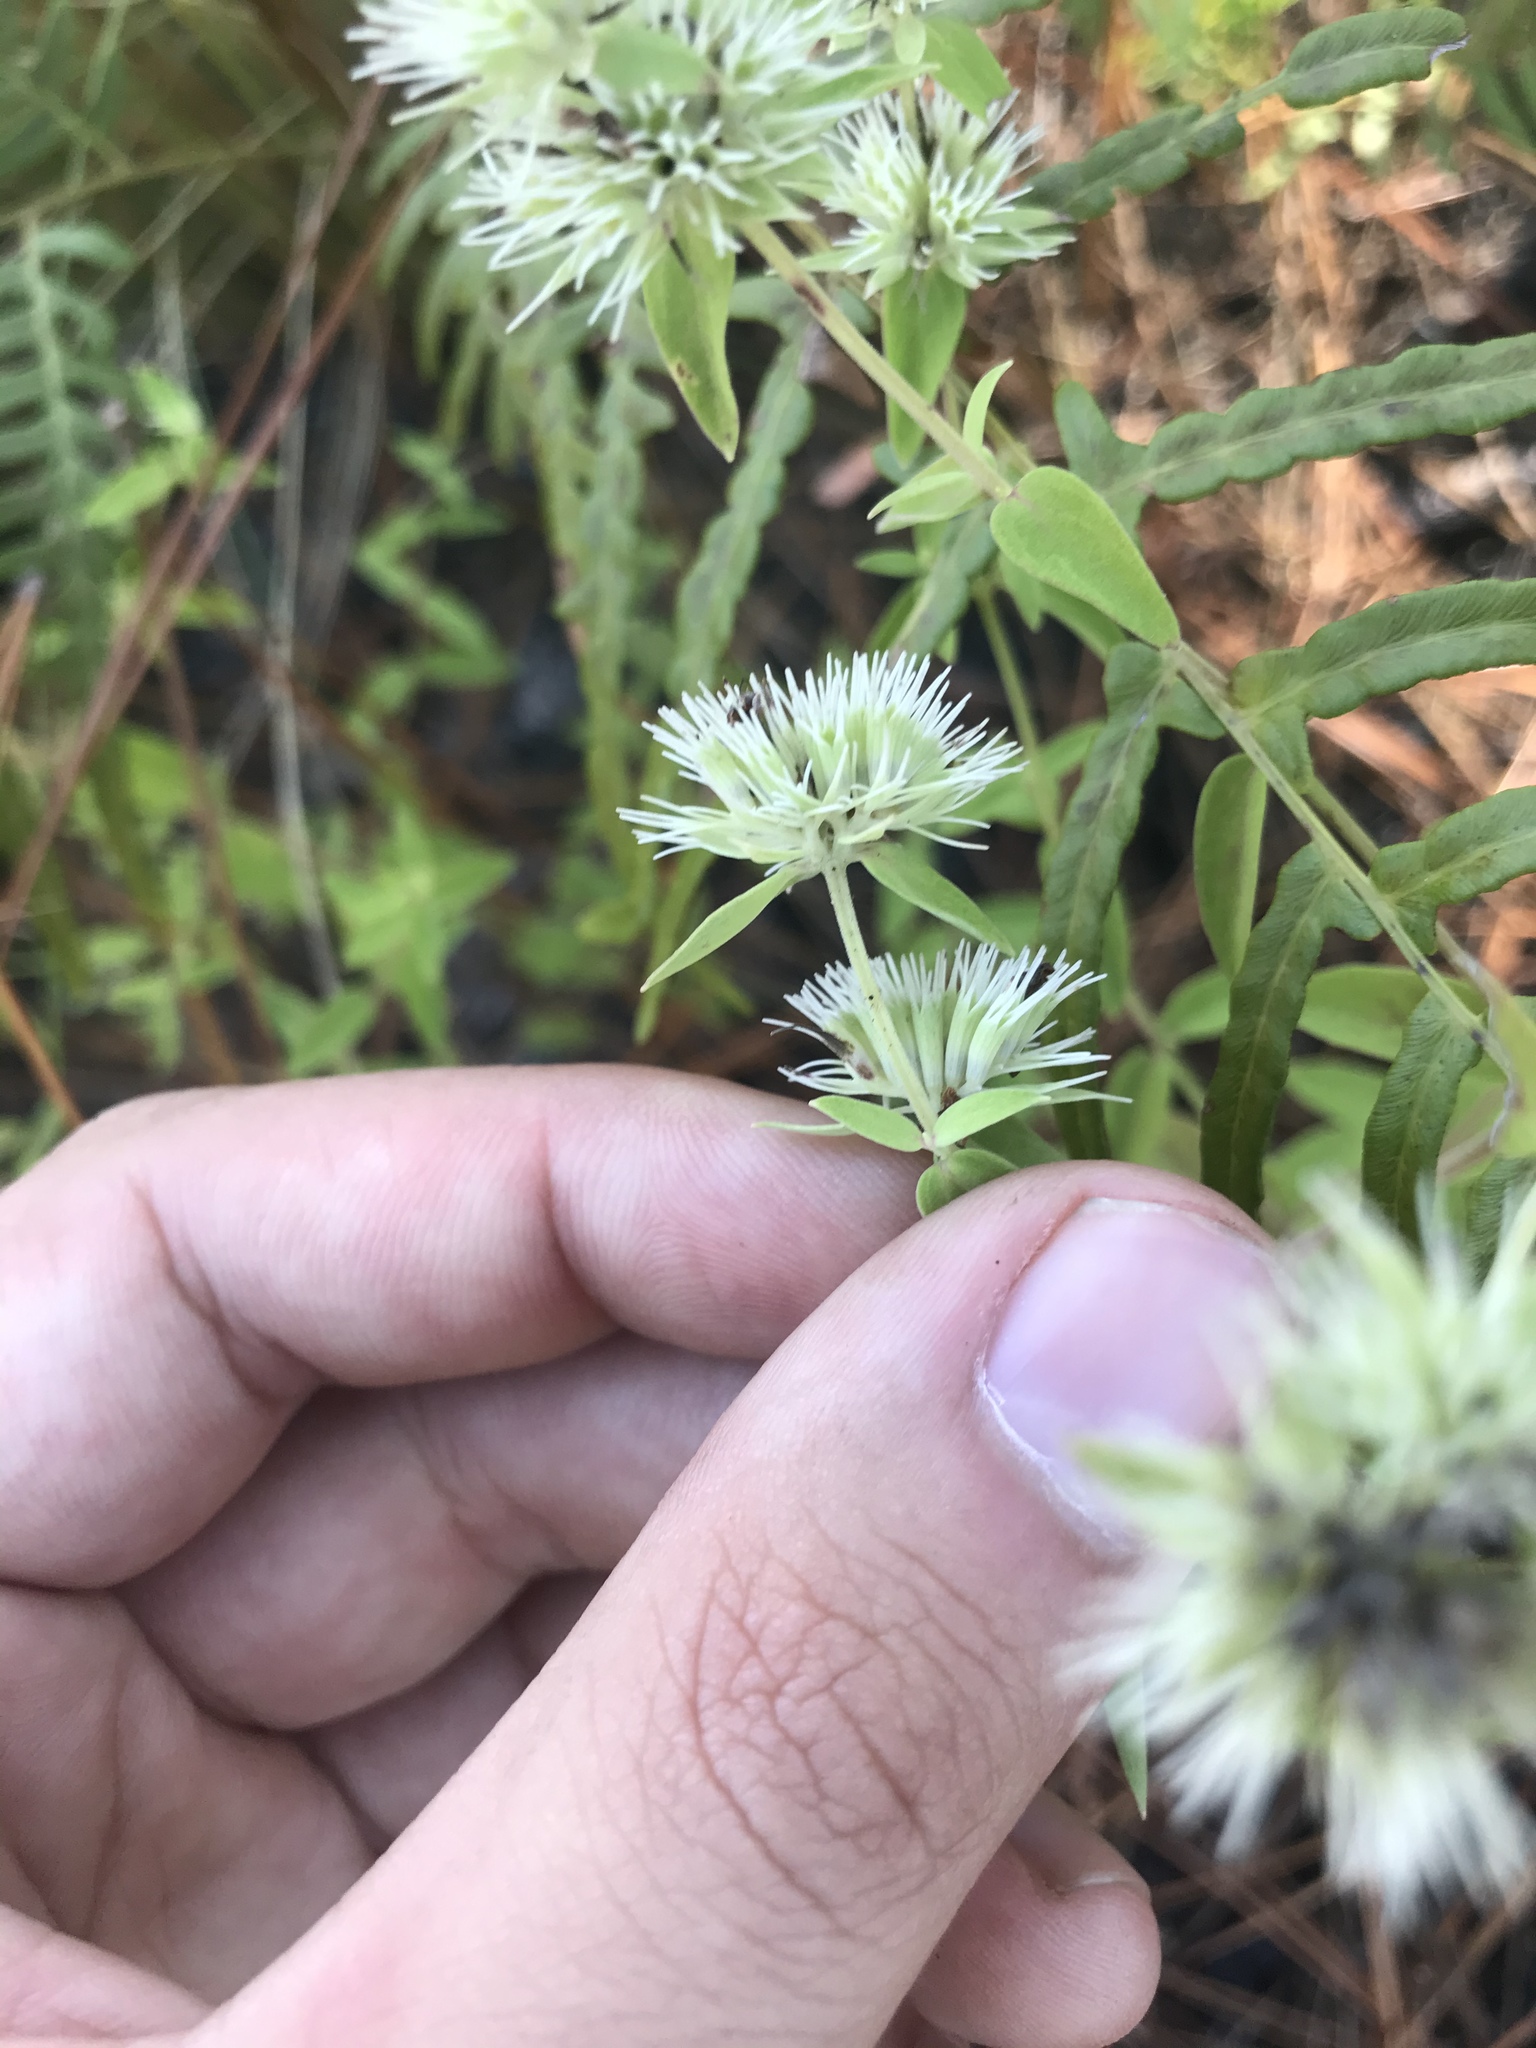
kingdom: Plantae
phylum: Tracheophyta
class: Magnoliopsida
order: Lamiales
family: Lamiaceae
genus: Pycnanthemum
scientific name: Pycnanthemum flexuosum
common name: Appalachian mountain-mint
